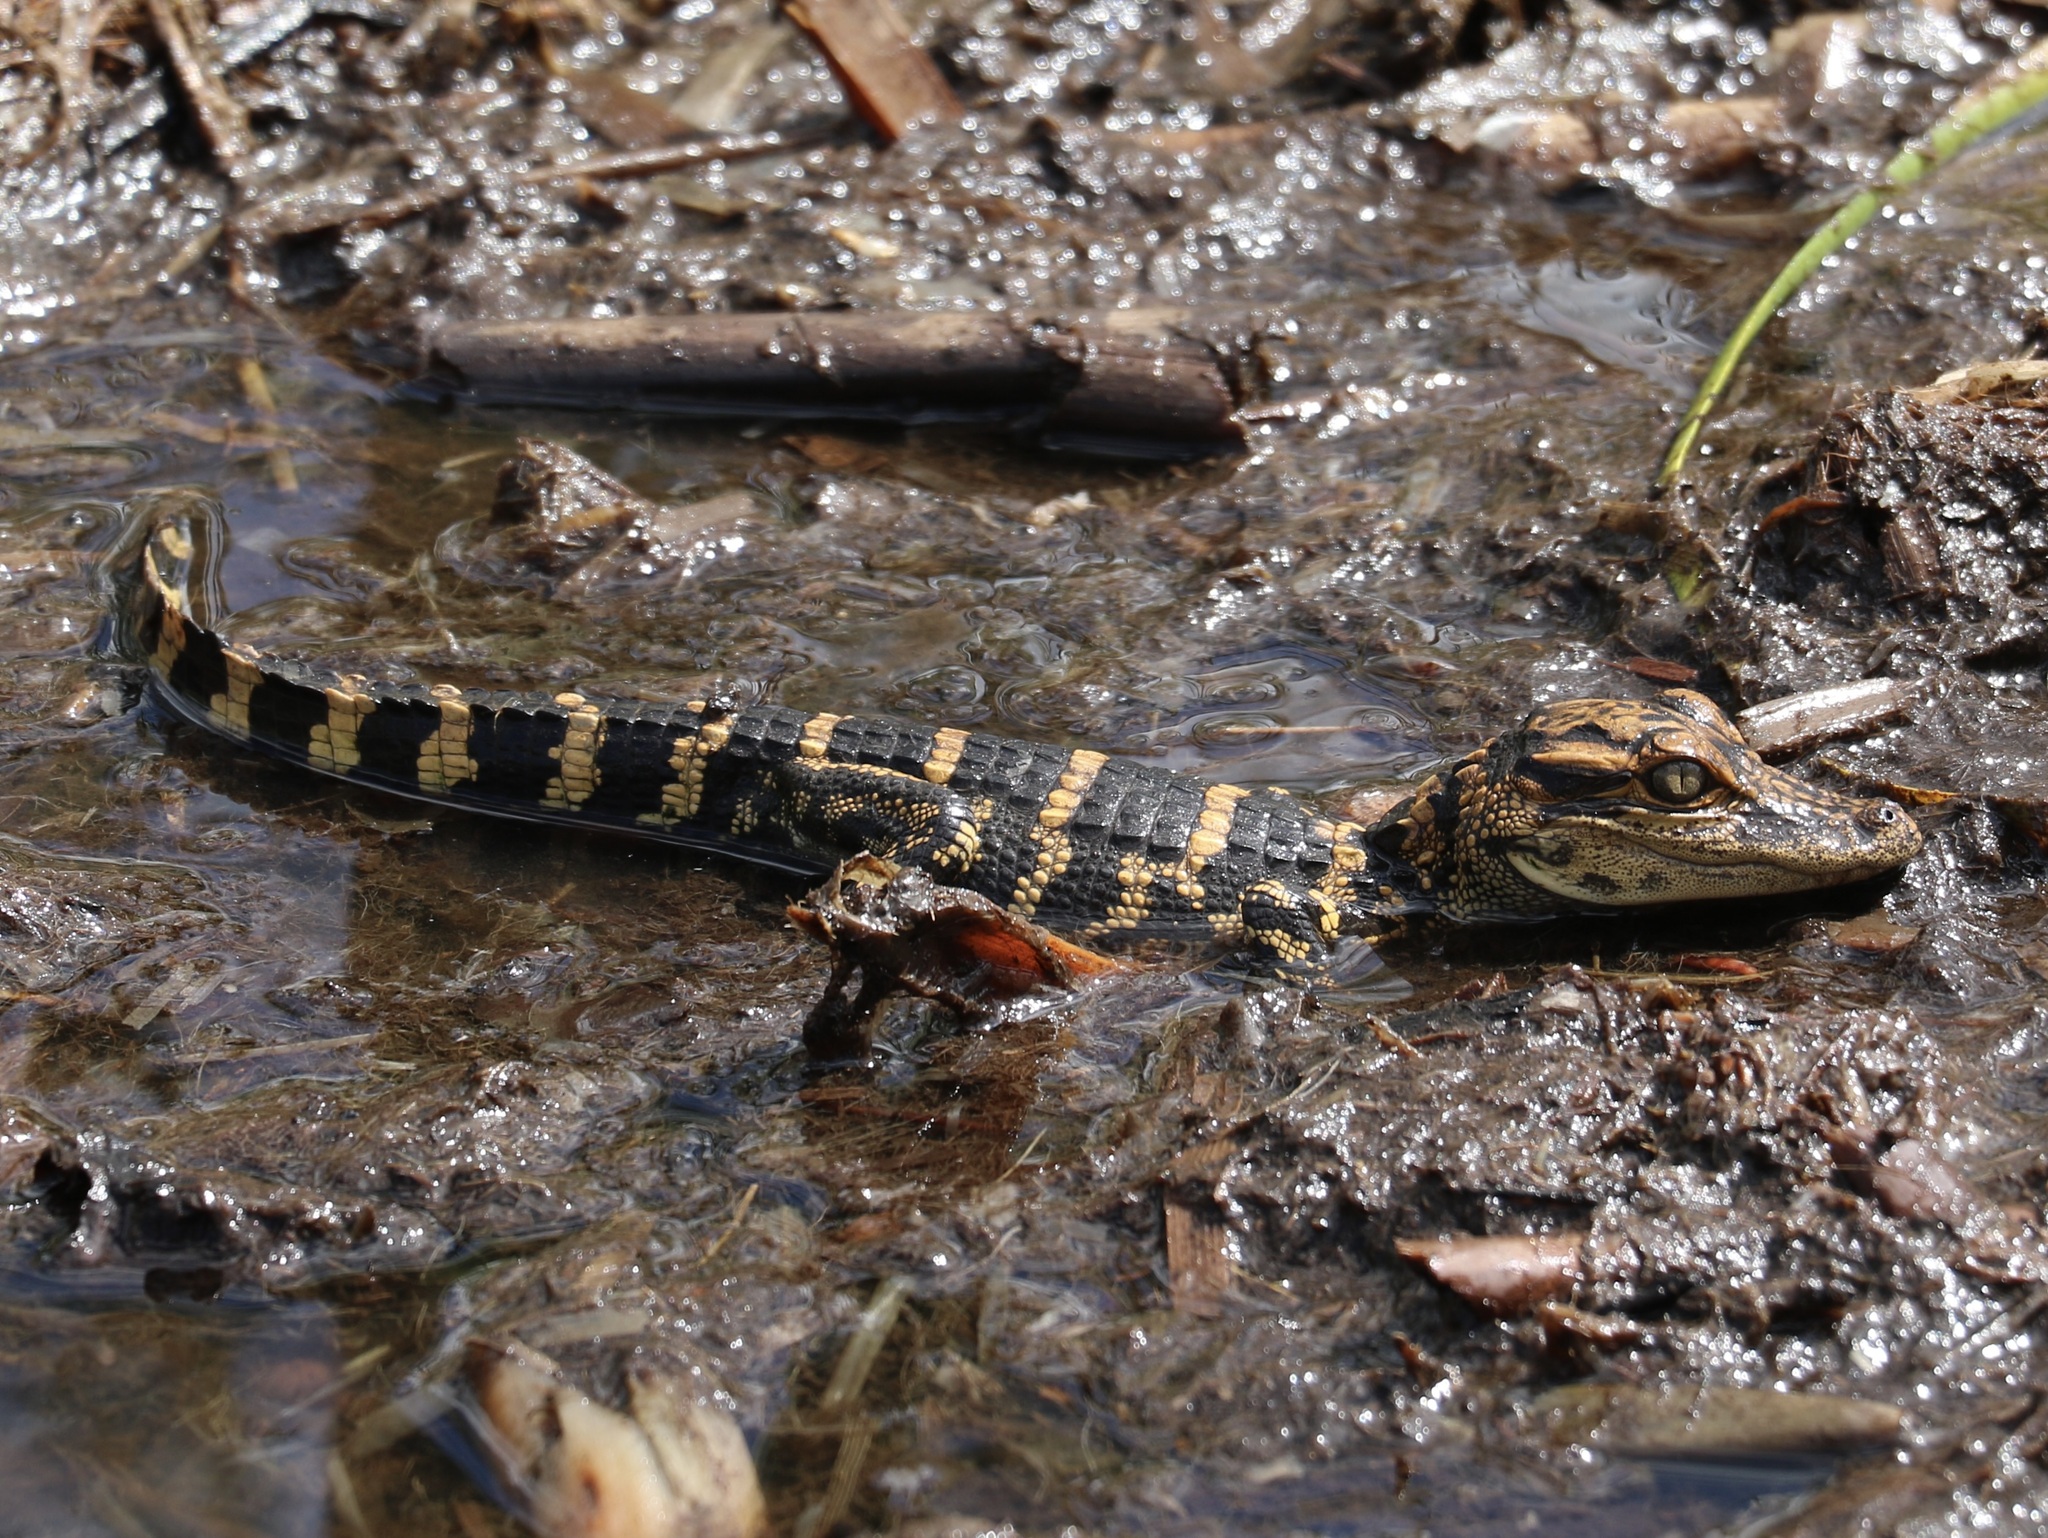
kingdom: Animalia
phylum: Chordata
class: Crocodylia
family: Alligatoridae
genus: Alligator
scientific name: Alligator mississippiensis
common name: American alligator
